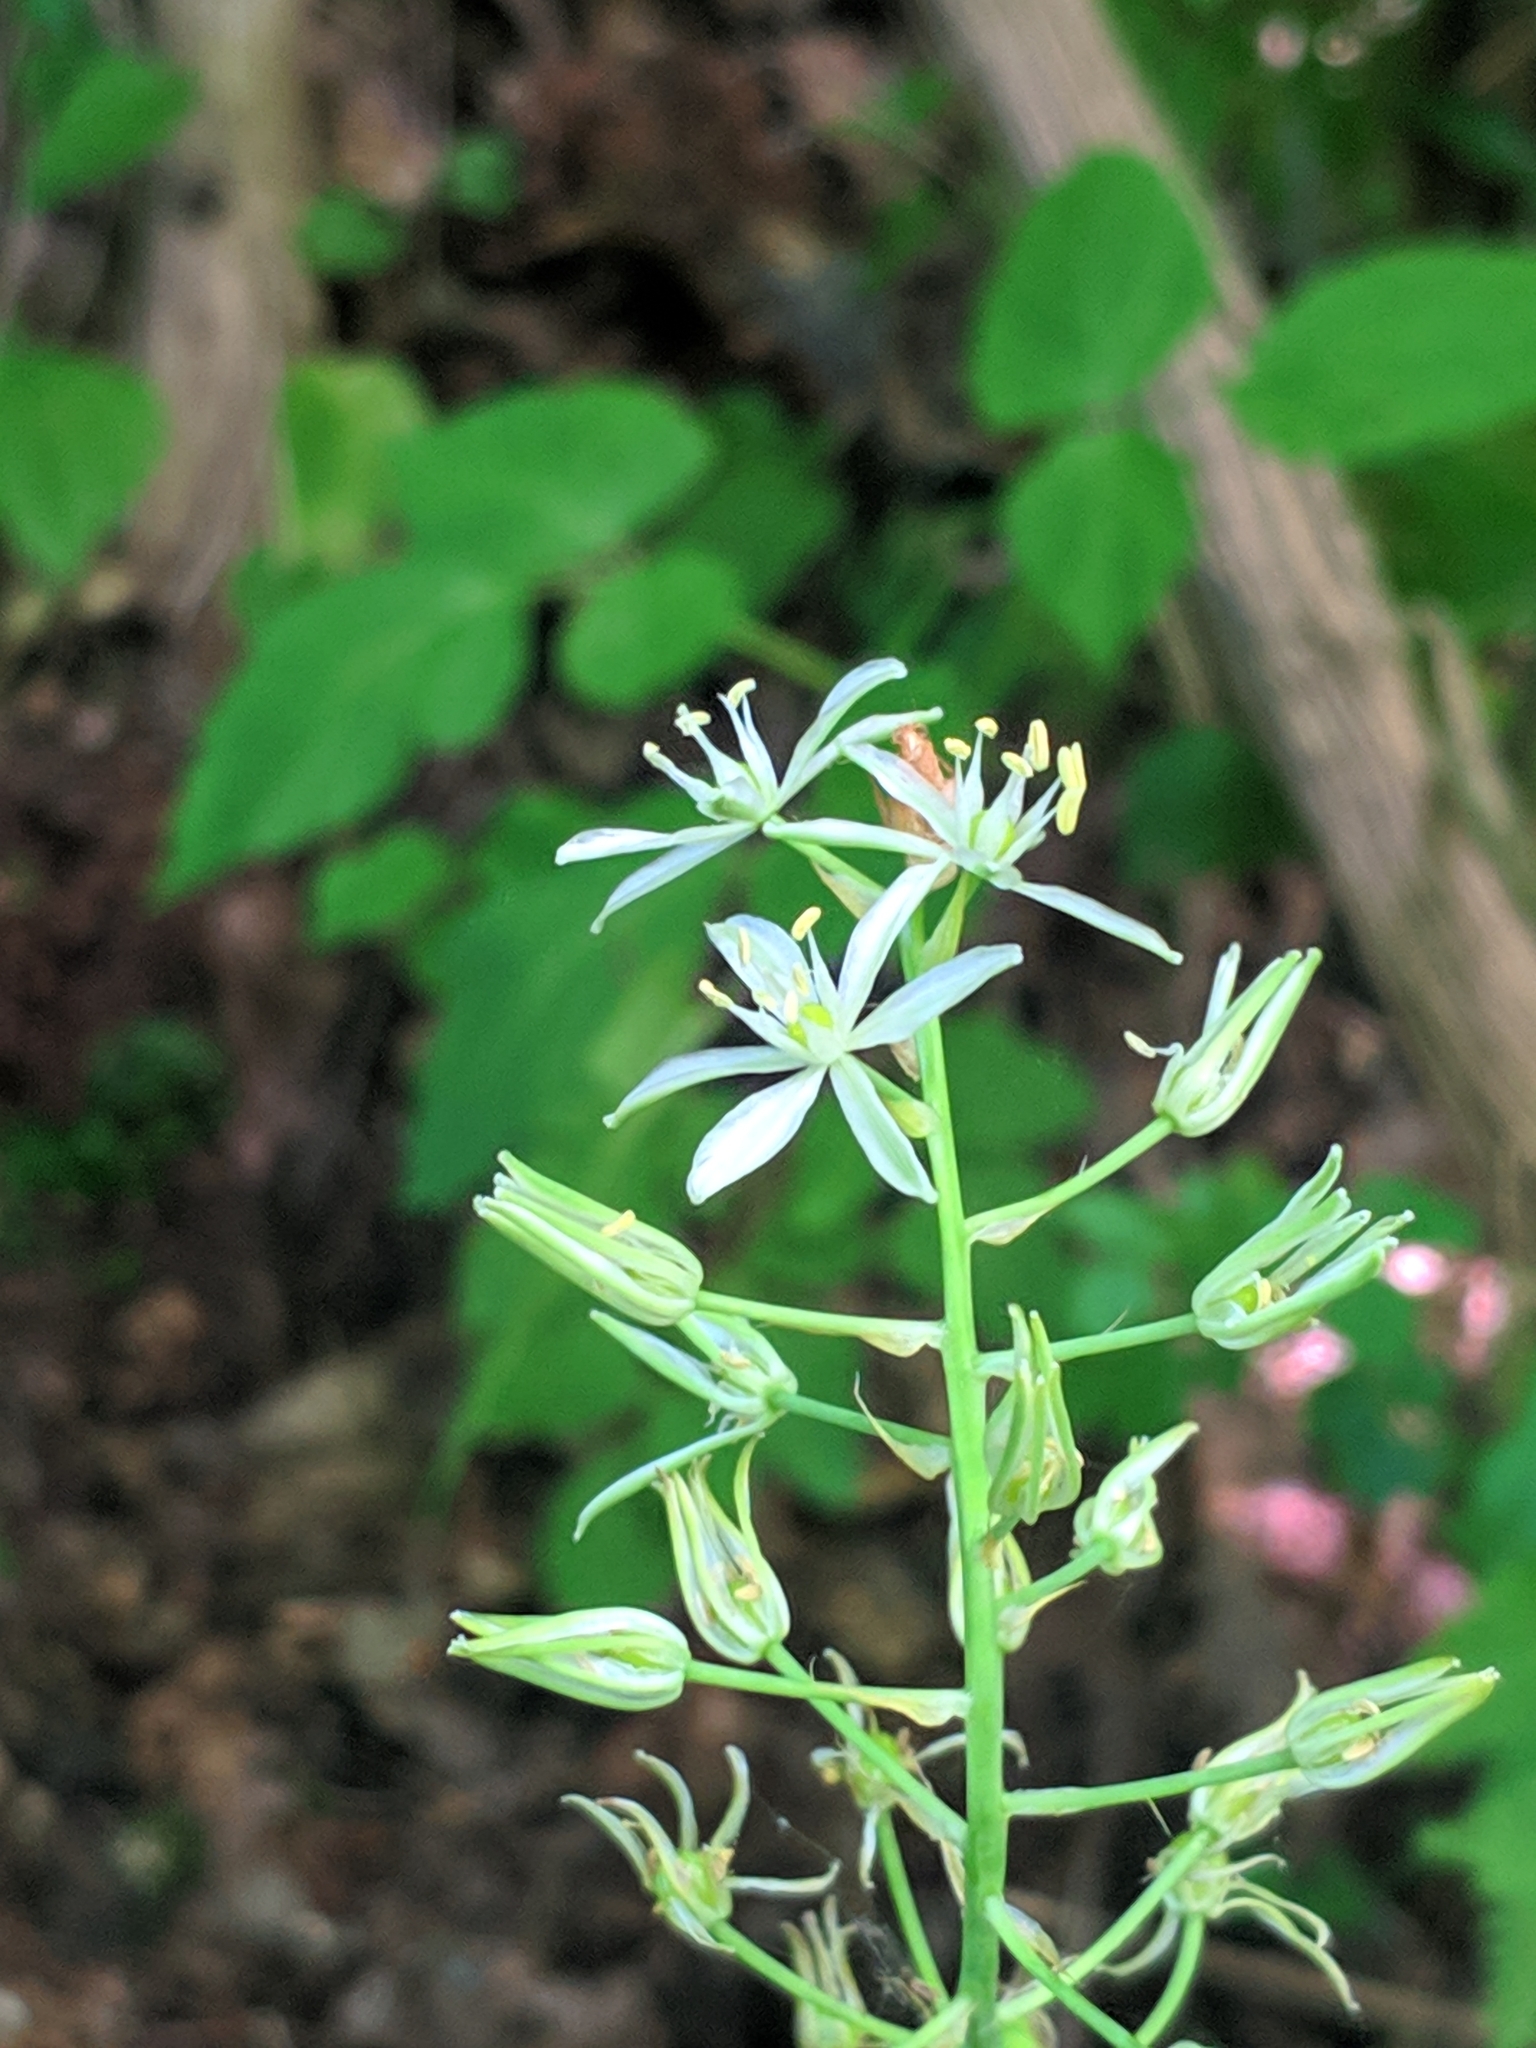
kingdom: Plantae
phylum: Tracheophyta
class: Liliopsida
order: Asparagales
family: Asparagaceae
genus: Ornithogalum
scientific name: Ornithogalum sphaerocarpum
